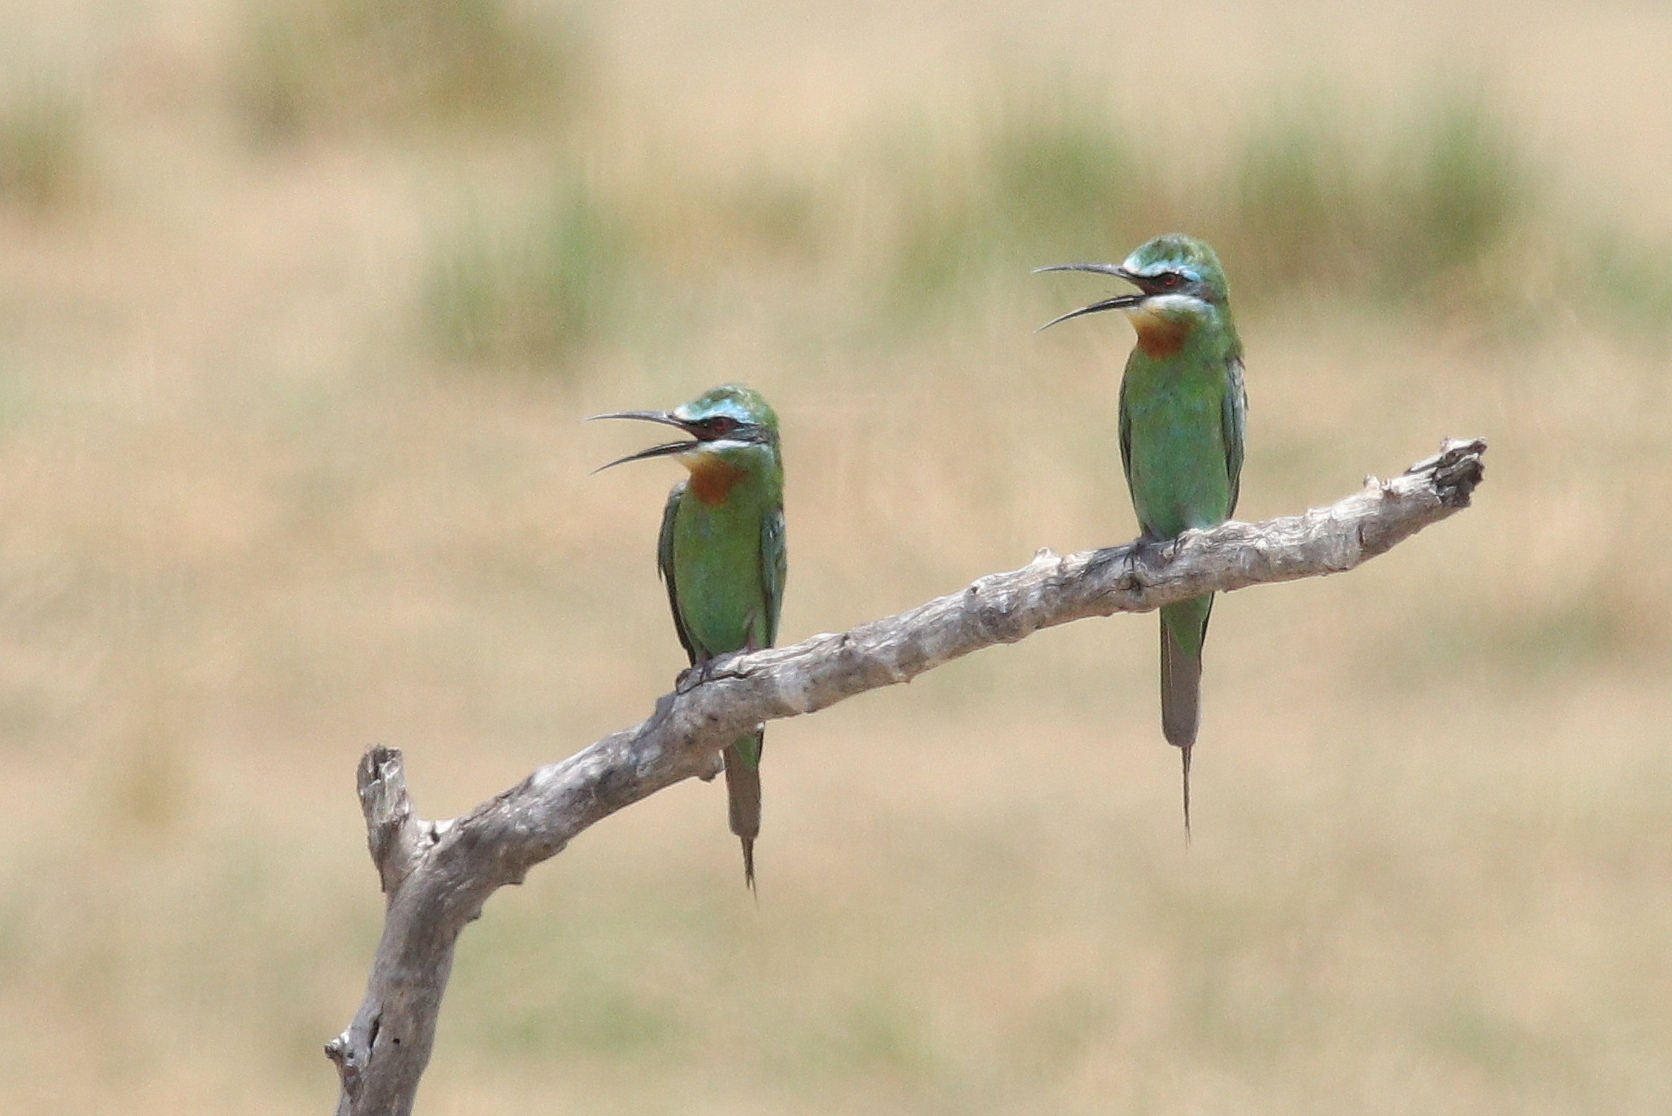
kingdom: Animalia
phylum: Chordata
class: Aves
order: Coraciiformes
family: Meropidae
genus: Merops
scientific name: Merops persicus
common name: Blue-cheeked bee-eater
